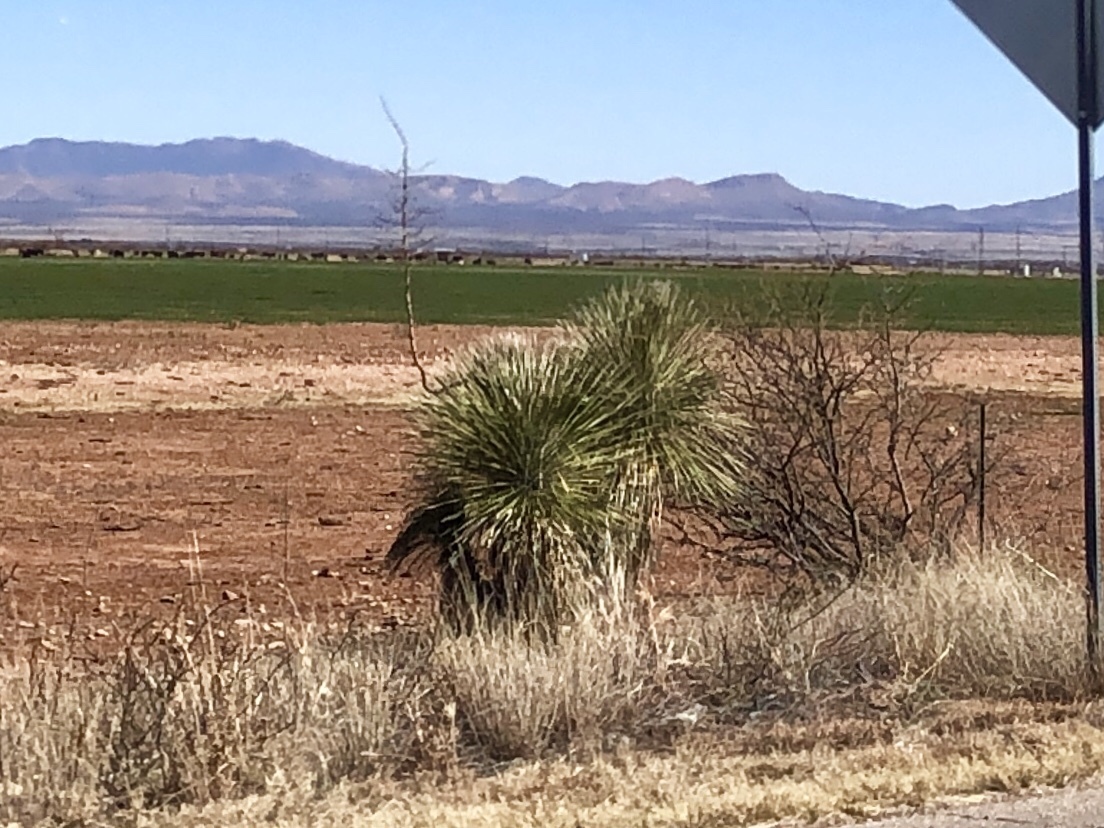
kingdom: Plantae
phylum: Tracheophyta
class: Liliopsida
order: Asparagales
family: Asparagaceae
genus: Yucca
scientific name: Yucca elata
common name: Palmella
